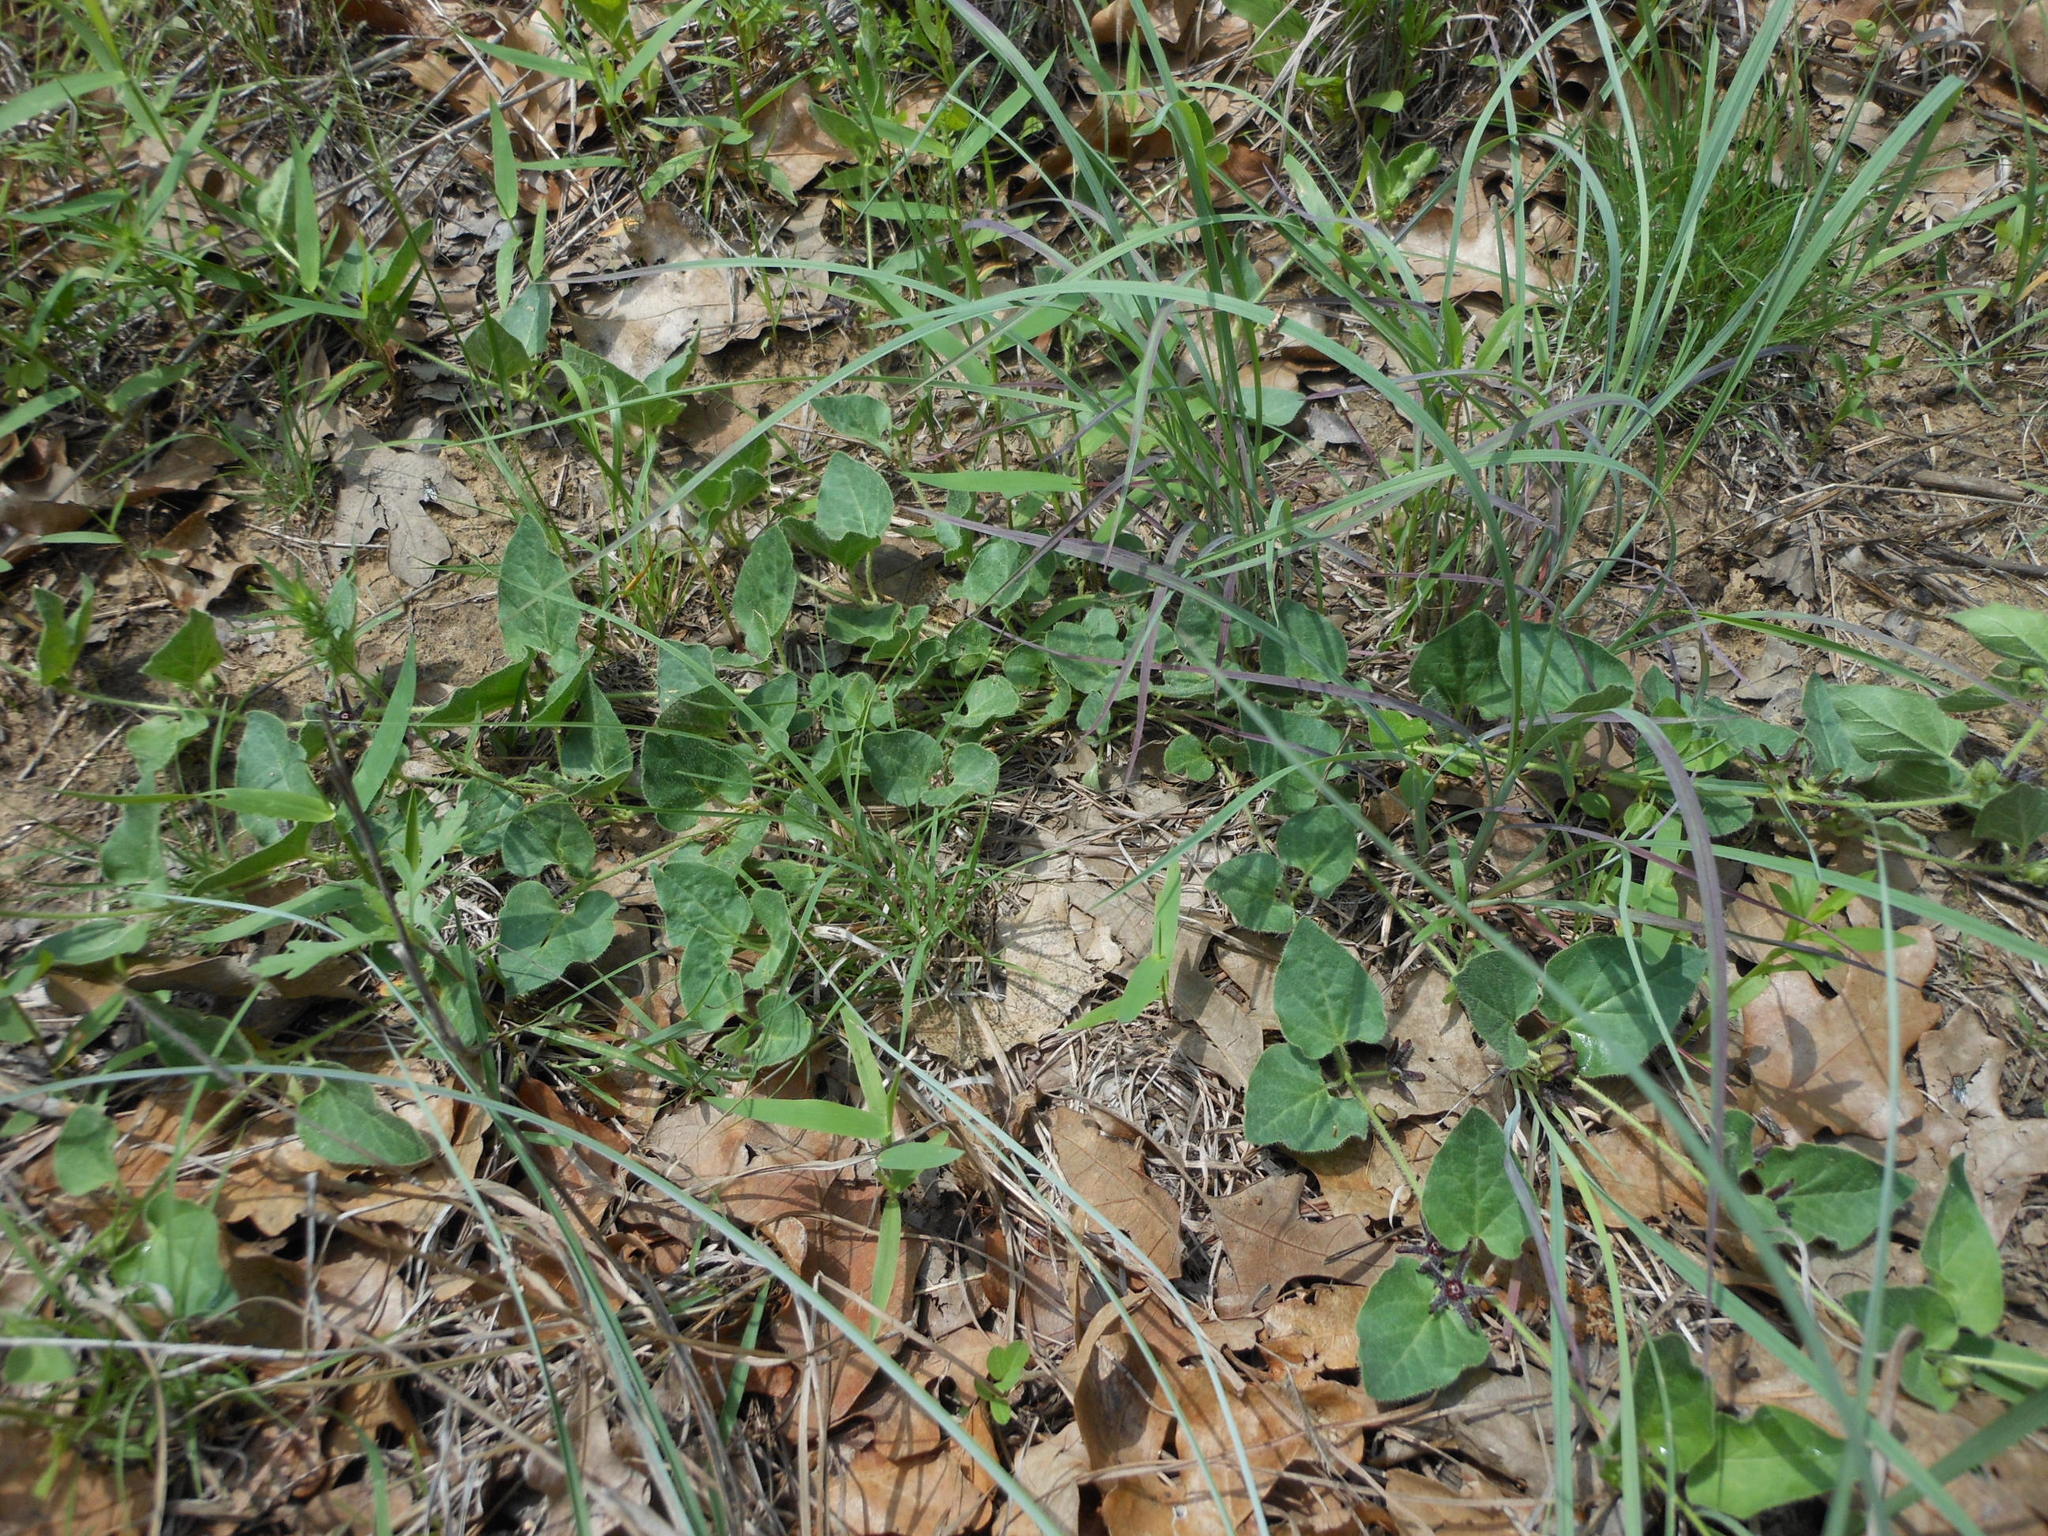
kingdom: Plantae
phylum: Tracheophyta
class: Magnoliopsida
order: Gentianales
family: Apocynaceae
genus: Chthamalia
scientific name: Chthamalia biflora
